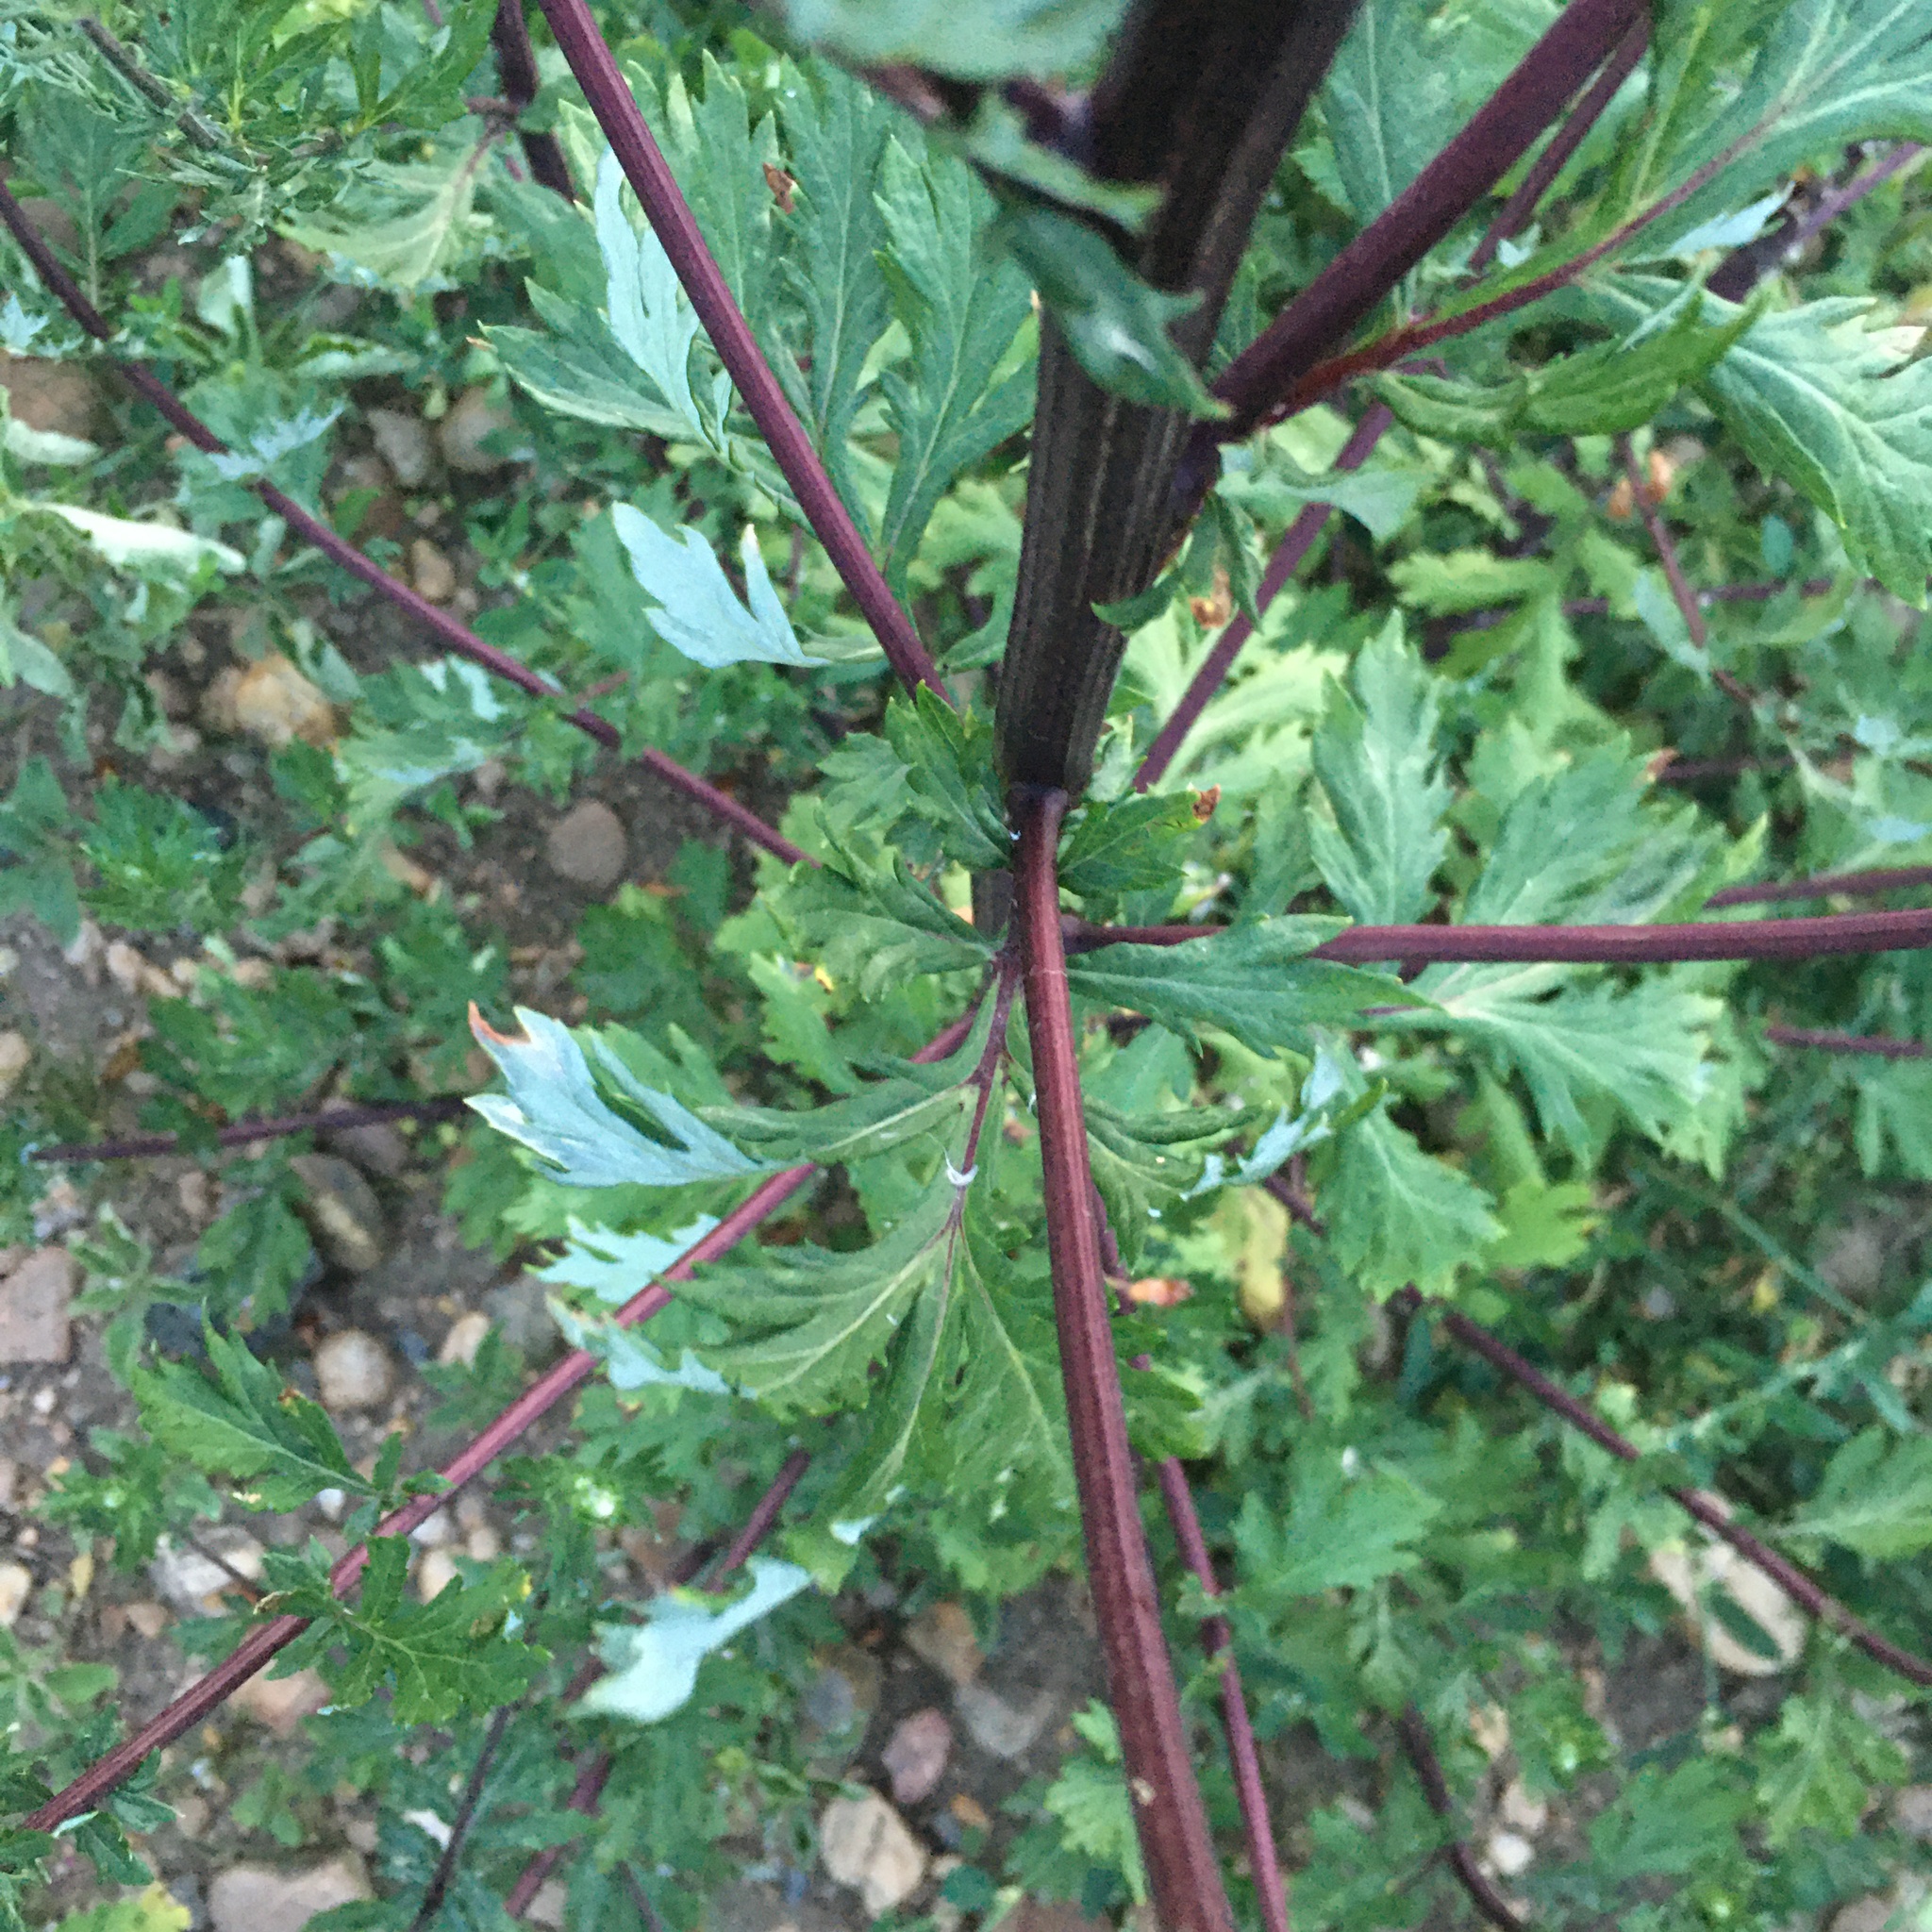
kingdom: Plantae
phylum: Tracheophyta
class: Magnoliopsida
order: Asterales
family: Asteraceae
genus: Artemisia
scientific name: Artemisia vulgaris
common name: Mugwort
